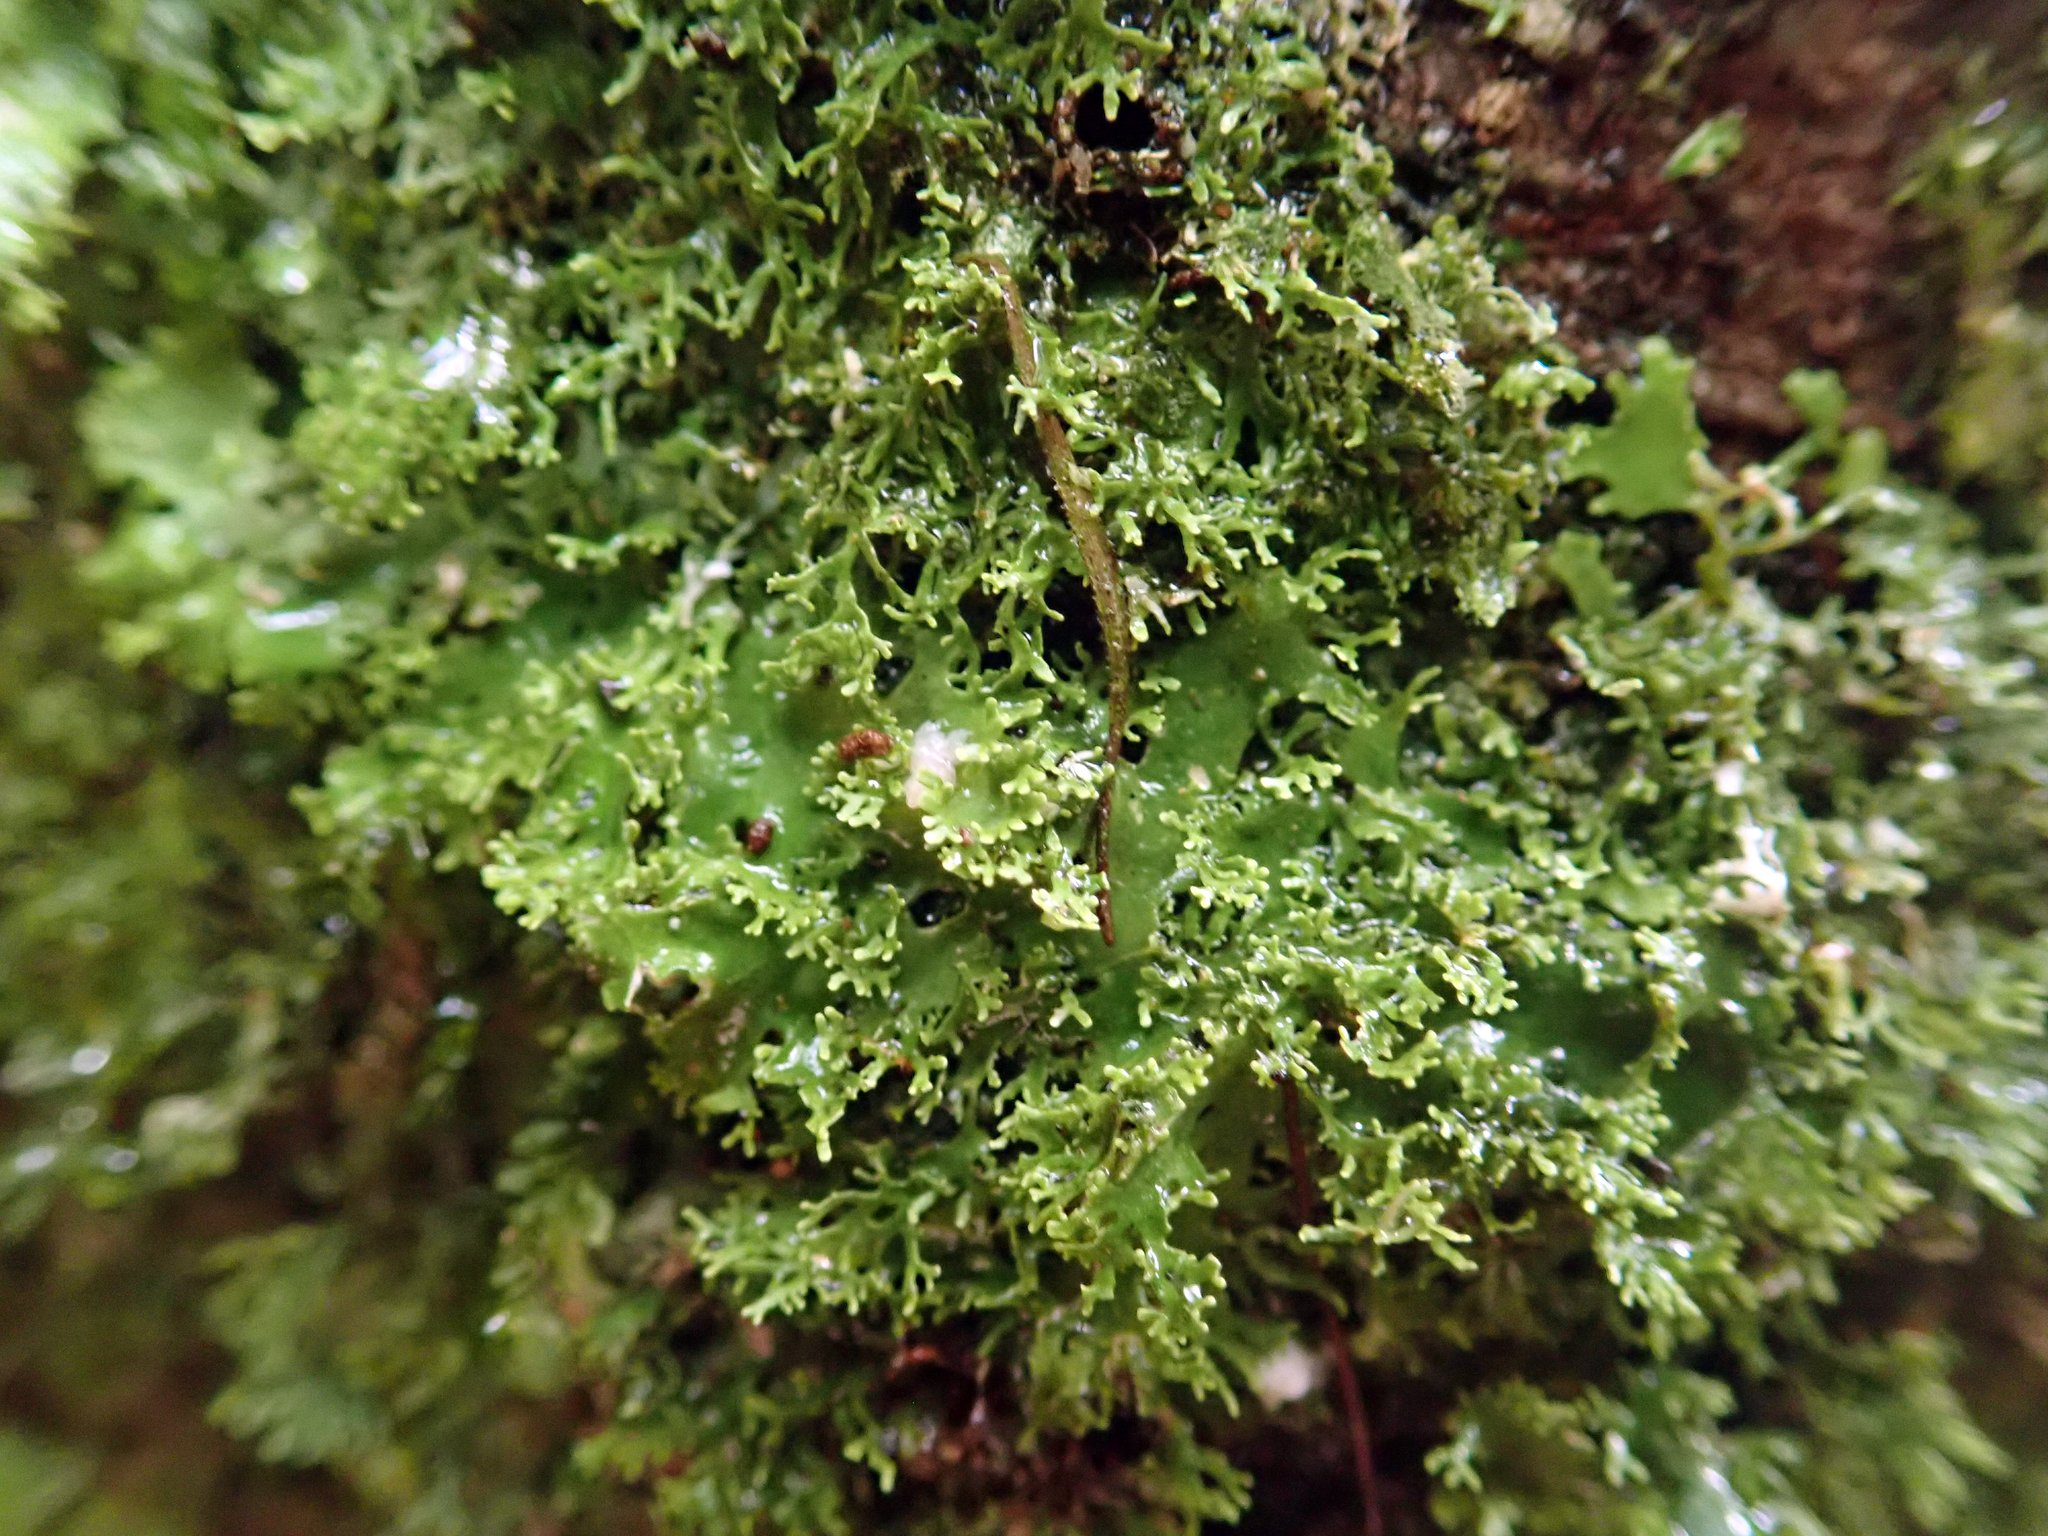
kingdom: Fungi
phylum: Ascomycota
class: Lecanoromycetes
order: Peltigerales
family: Lobariaceae
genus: Pseudocyphellaria
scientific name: Pseudocyphellaria multifida
